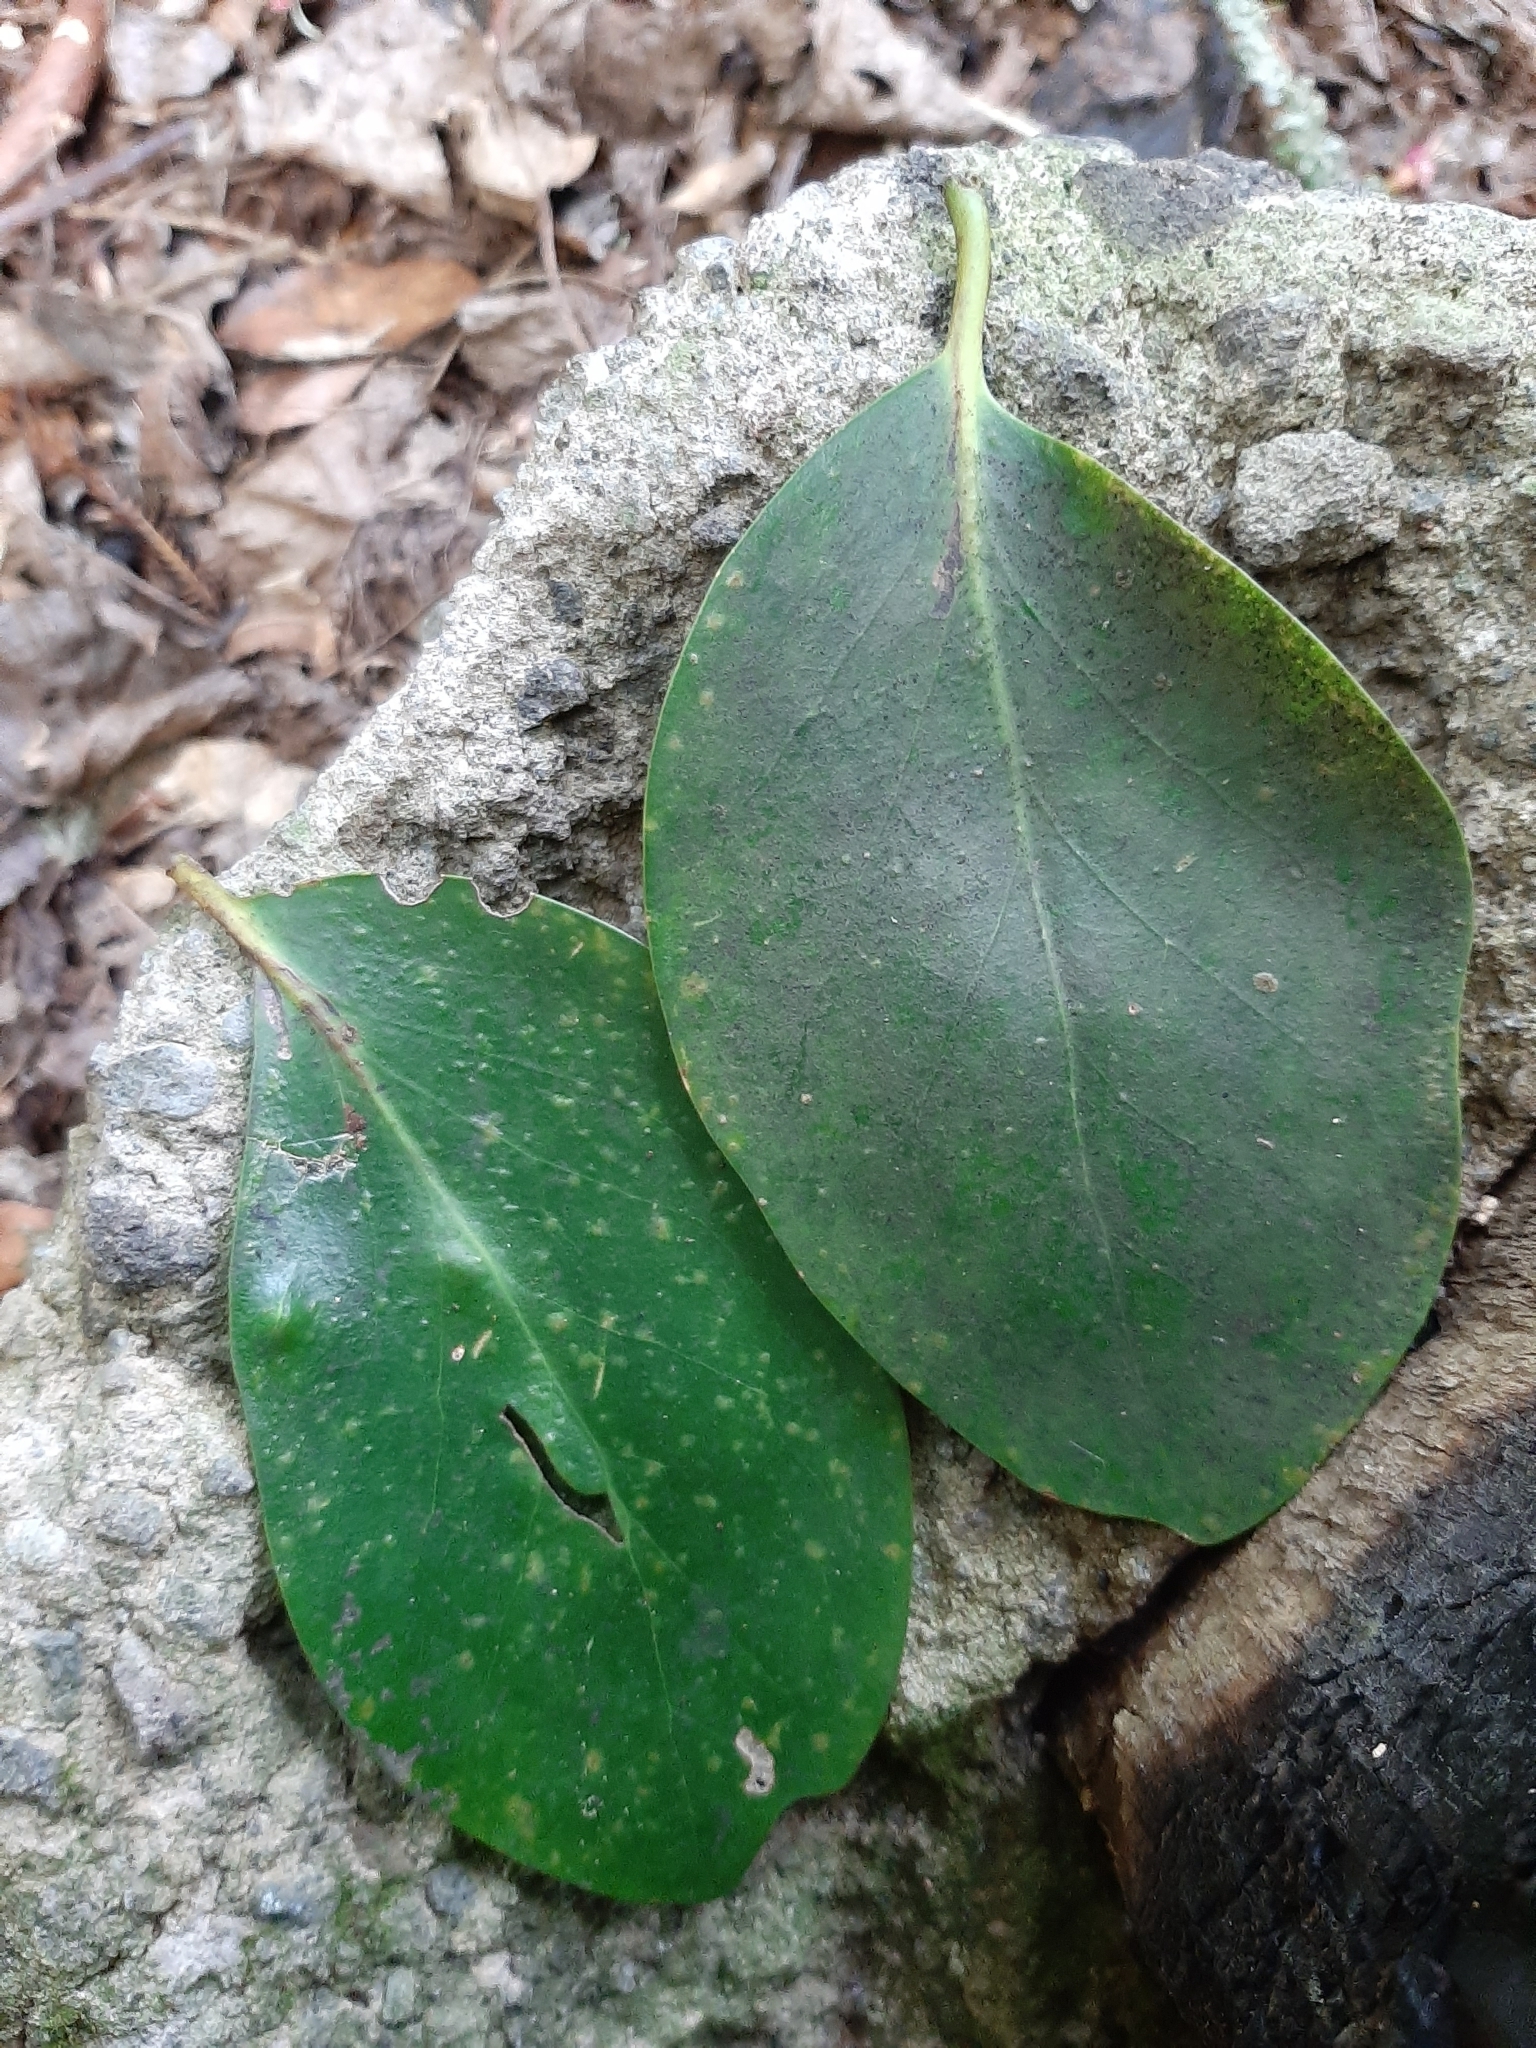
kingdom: Plantae
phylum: Tracheophyta
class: Magnoliopsida
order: Apiales
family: Griseliniaceae
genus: Griselinia
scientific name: Griselinia lucida
